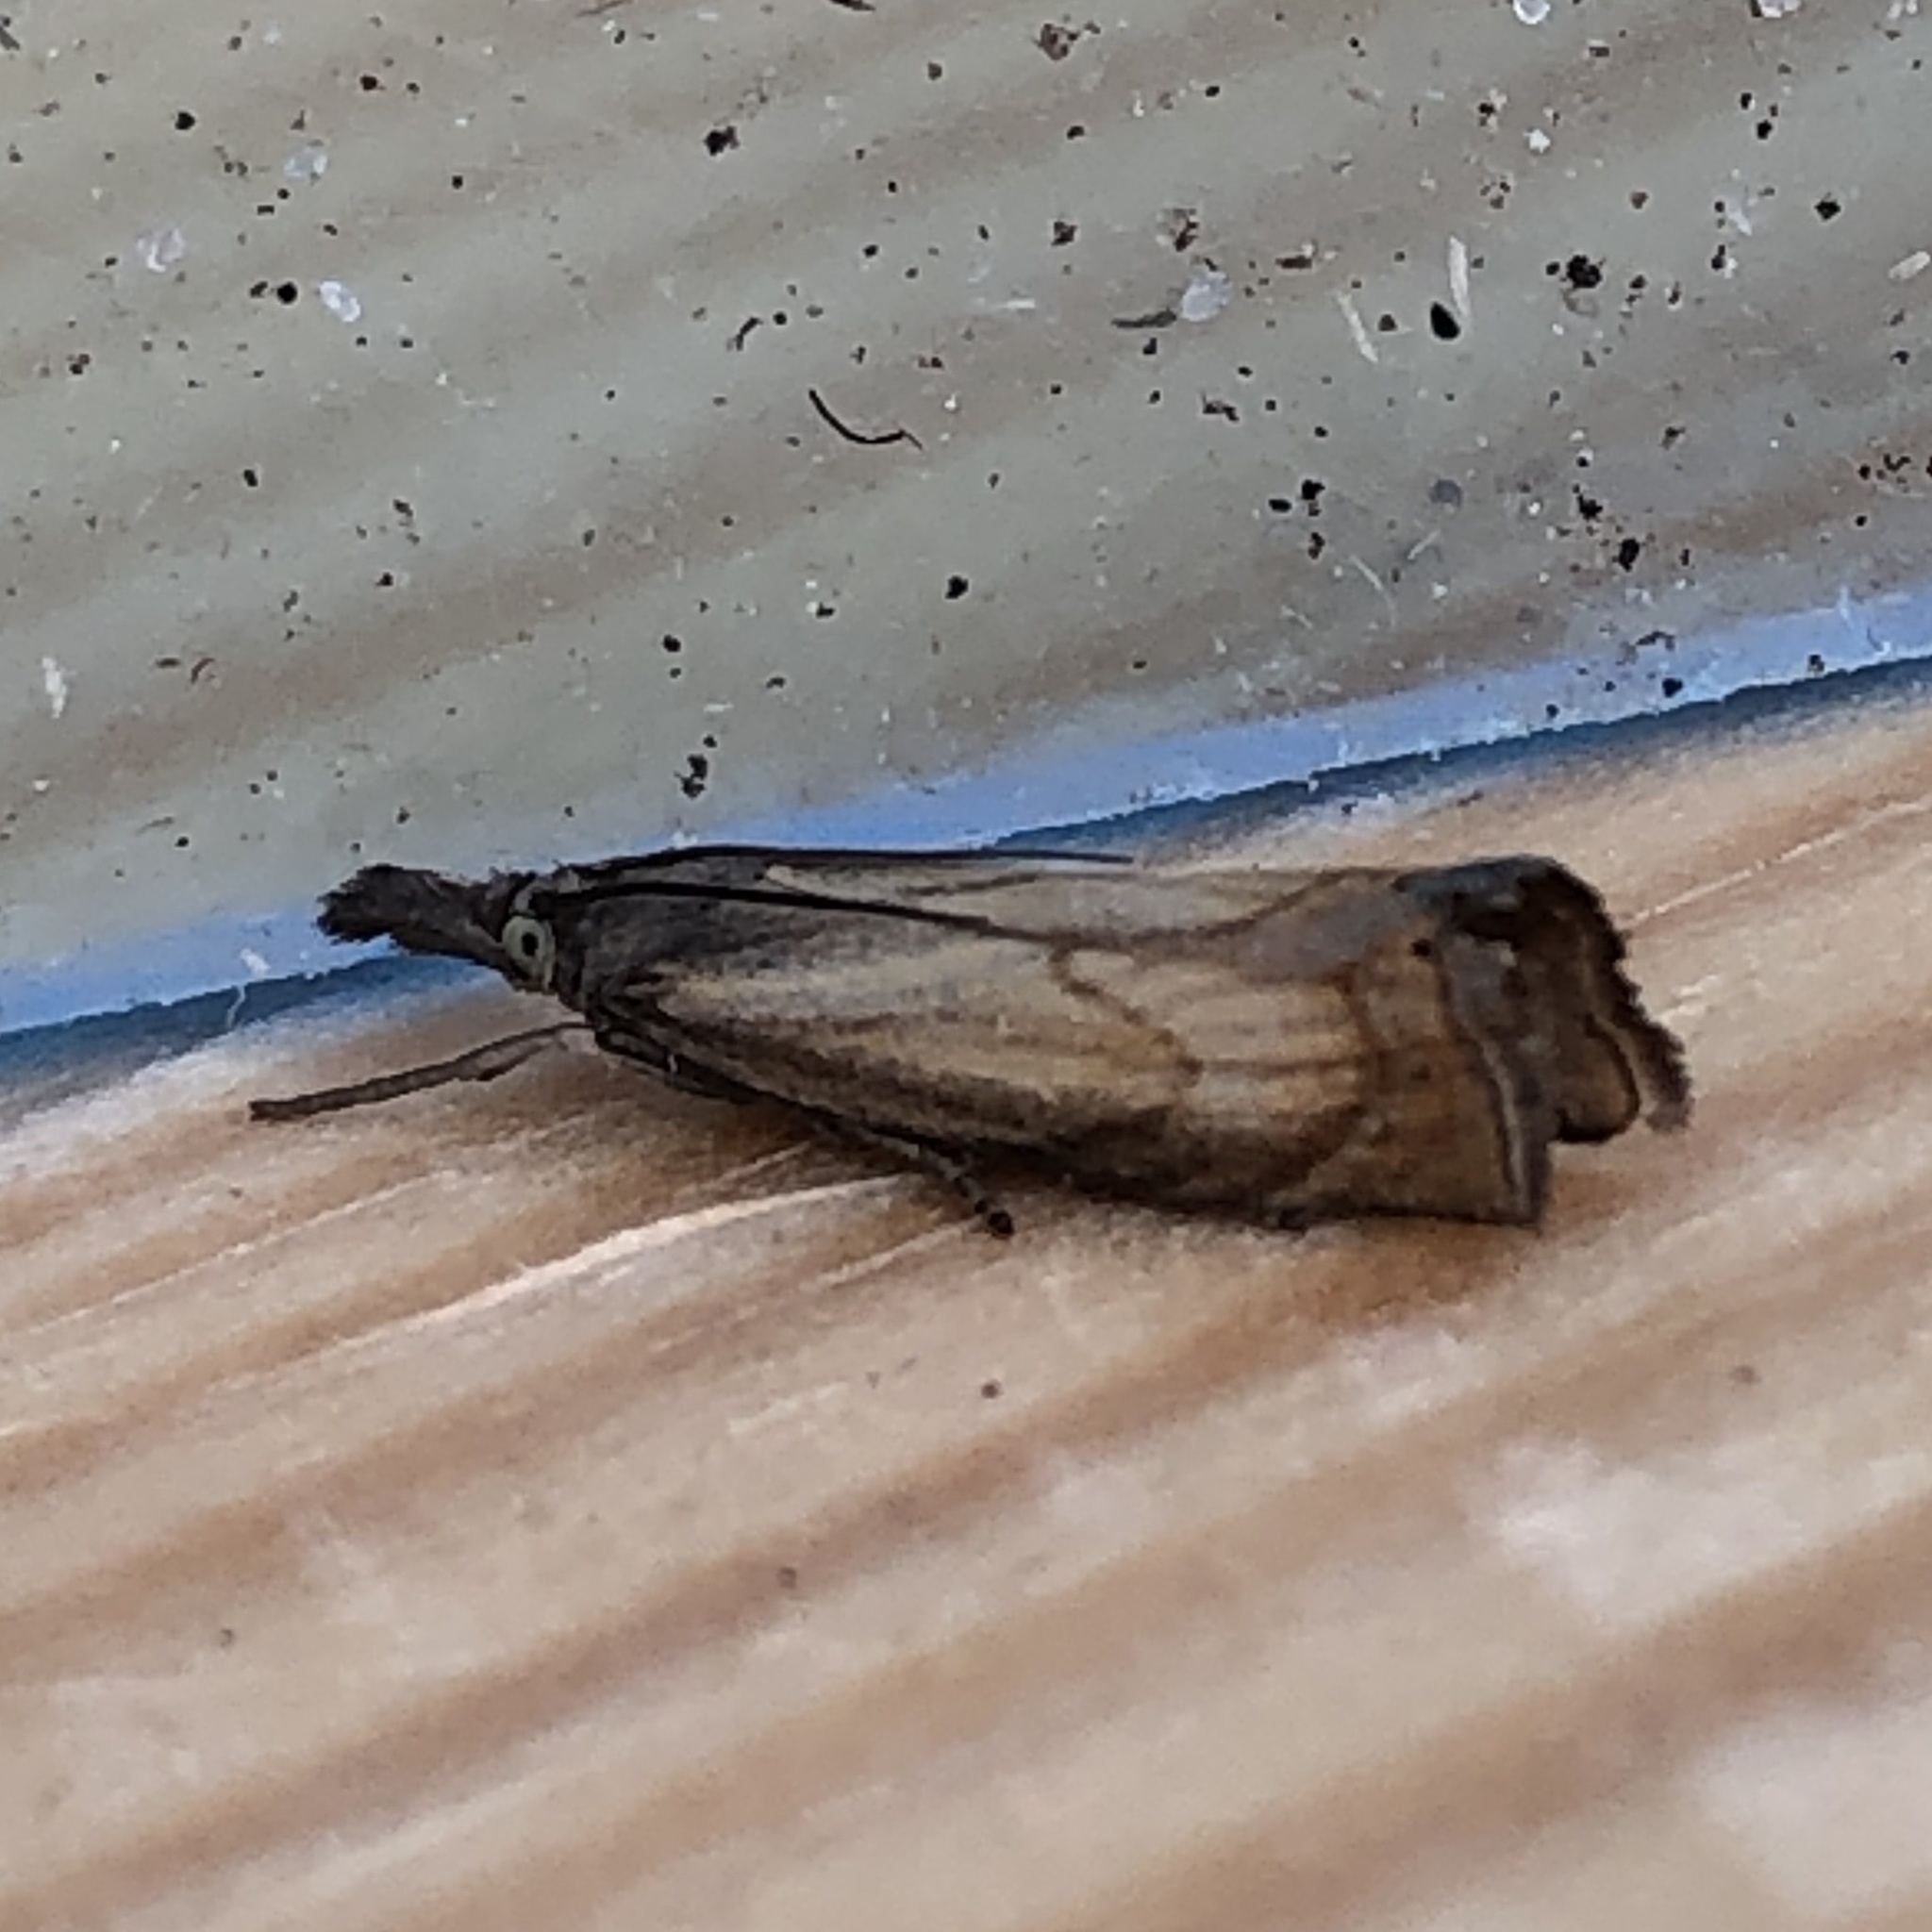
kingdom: Animalia
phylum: Arthropoda
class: Insecta
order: Lepidoptera
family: Crambidae
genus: Chrysoteuchia
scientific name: Chrysoteuchia culmella
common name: Garden grass-veneer
